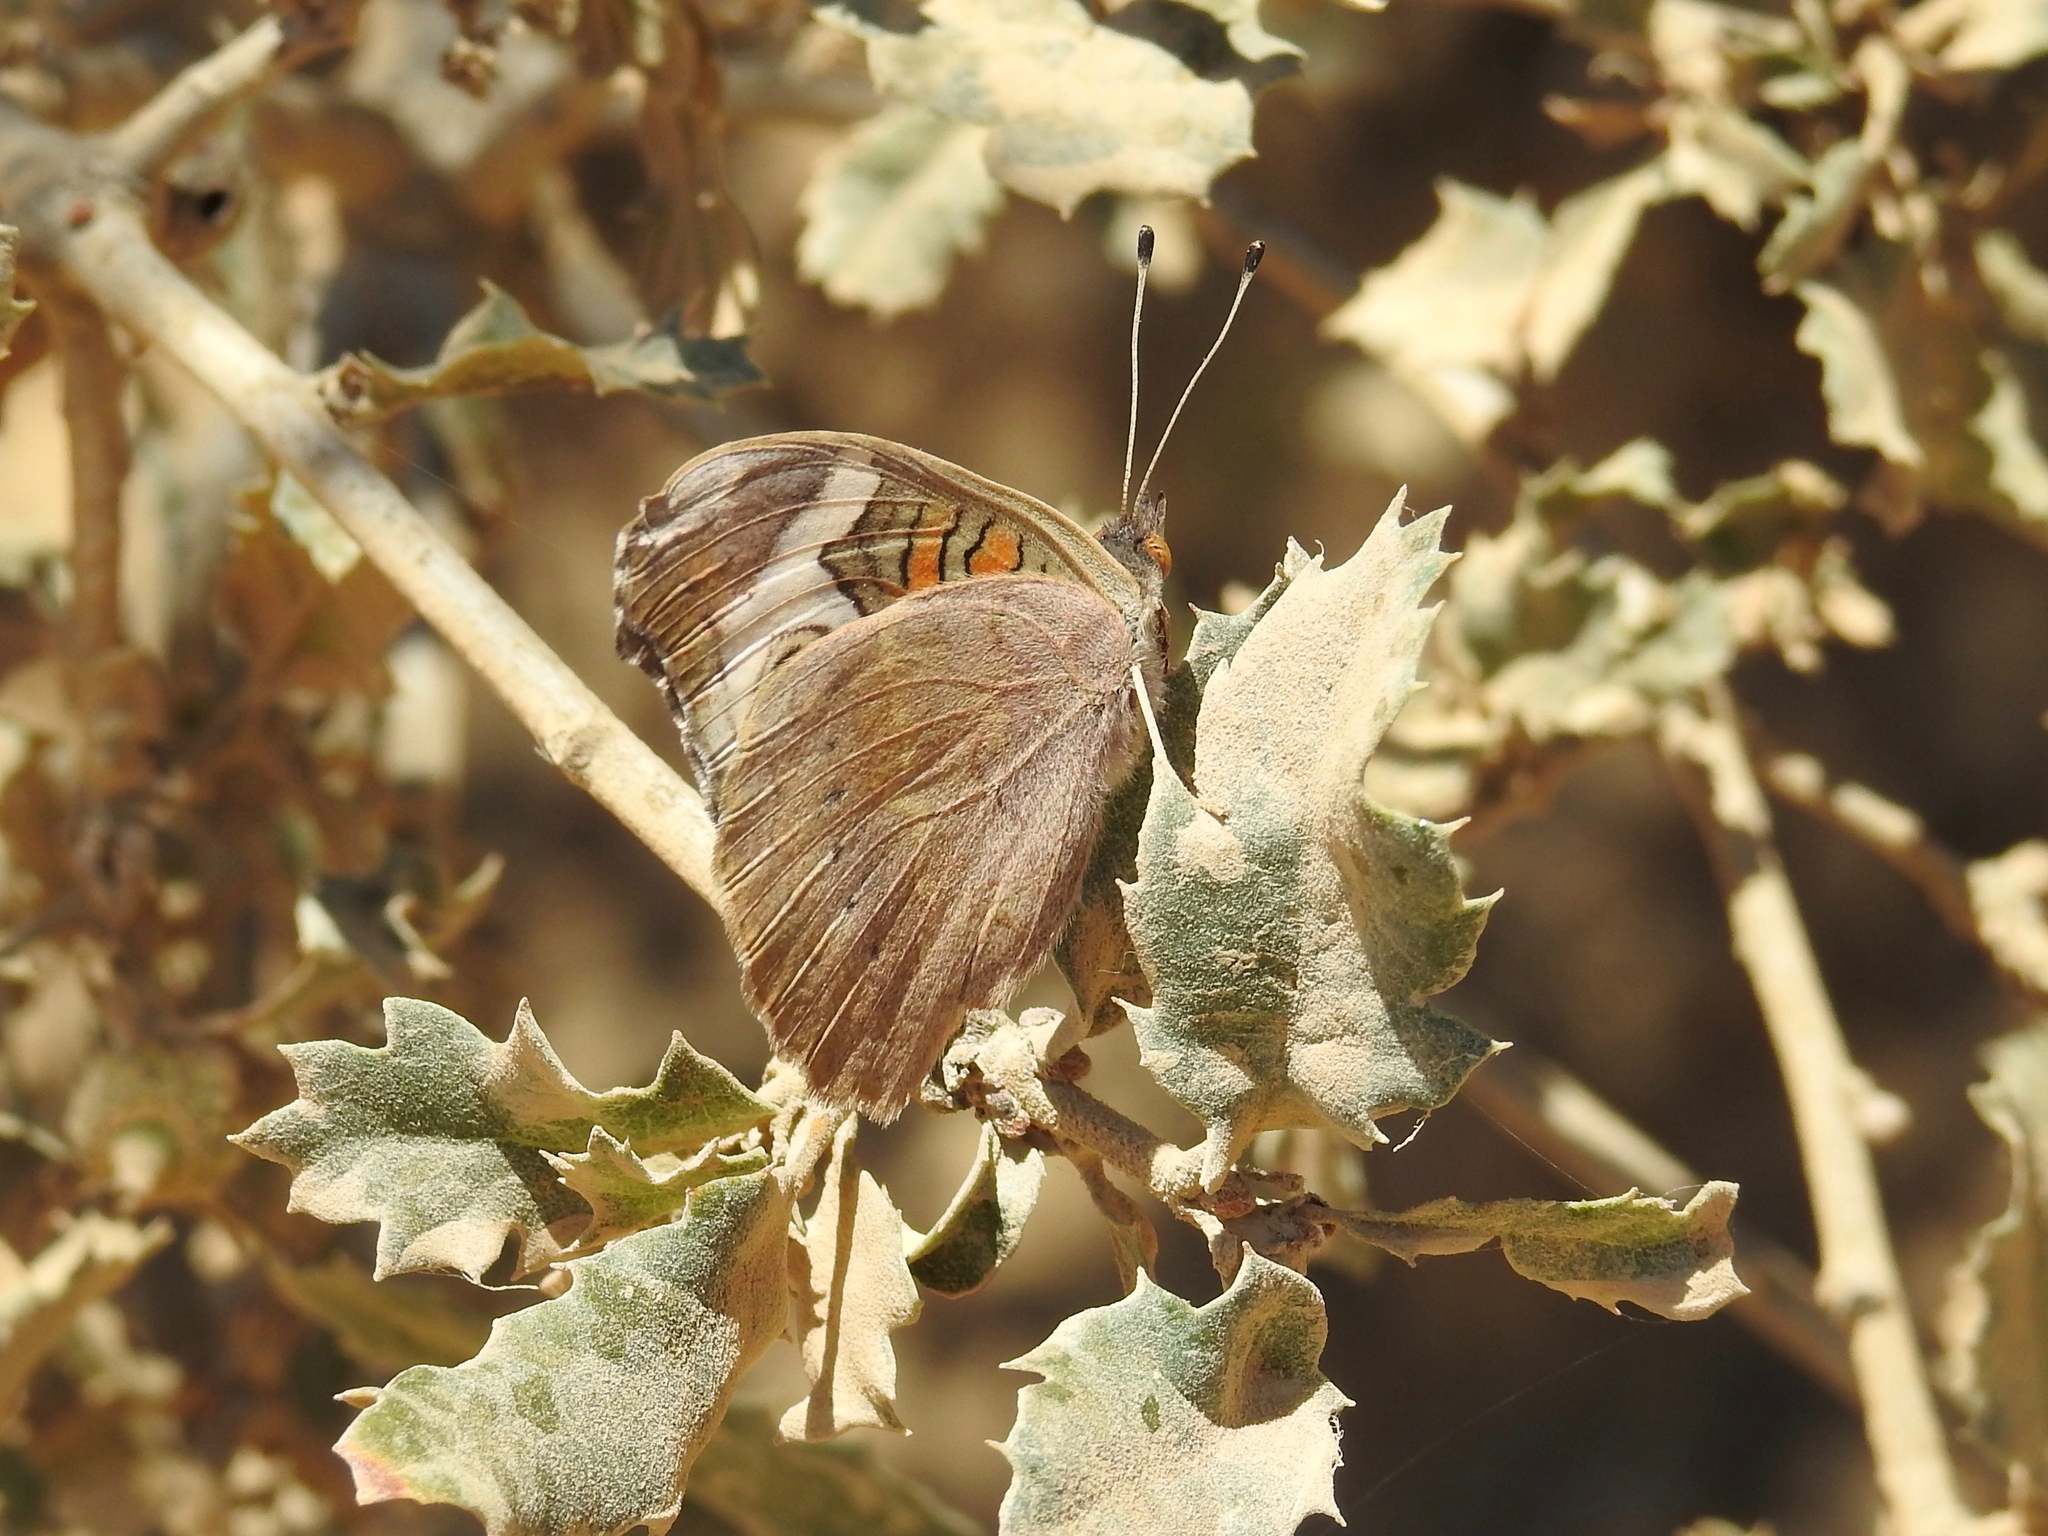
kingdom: Animalia
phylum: Arthropoda
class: Insecta
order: Lepidoptera
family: Nymphalidae
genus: Junonia
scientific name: Junonia grisea
